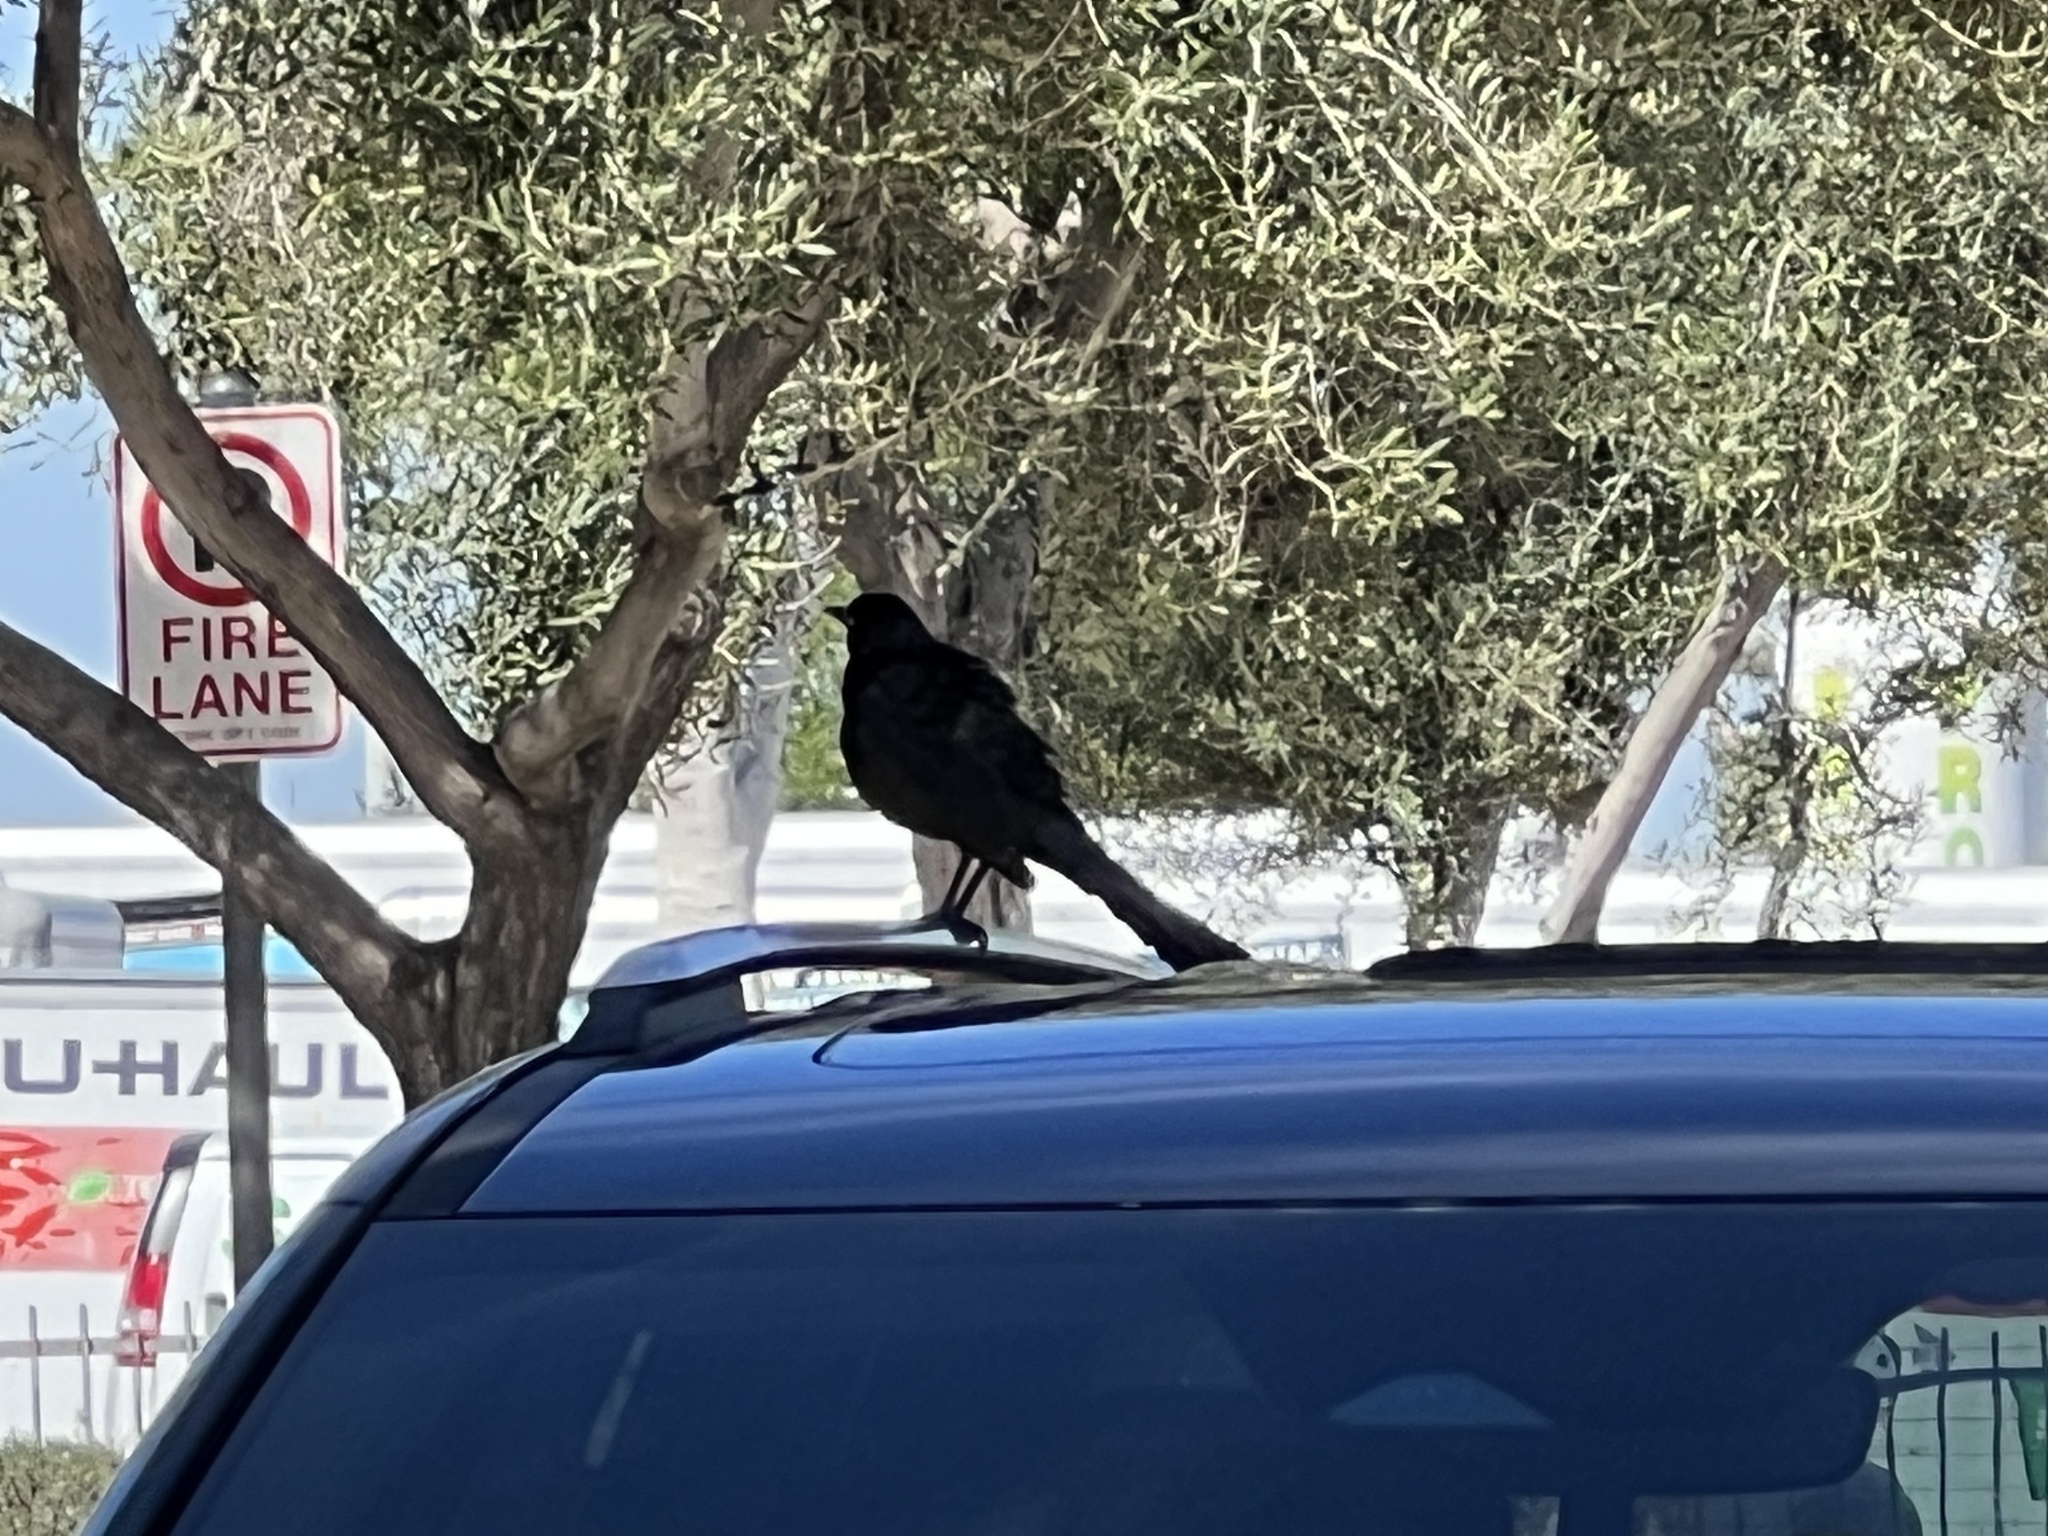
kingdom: Animalia
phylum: Chordata
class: Aves
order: Passeriformes
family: Icteridae
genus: Quiscalus
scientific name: Quiscalus mexicanus
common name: Great-tailed grackle
